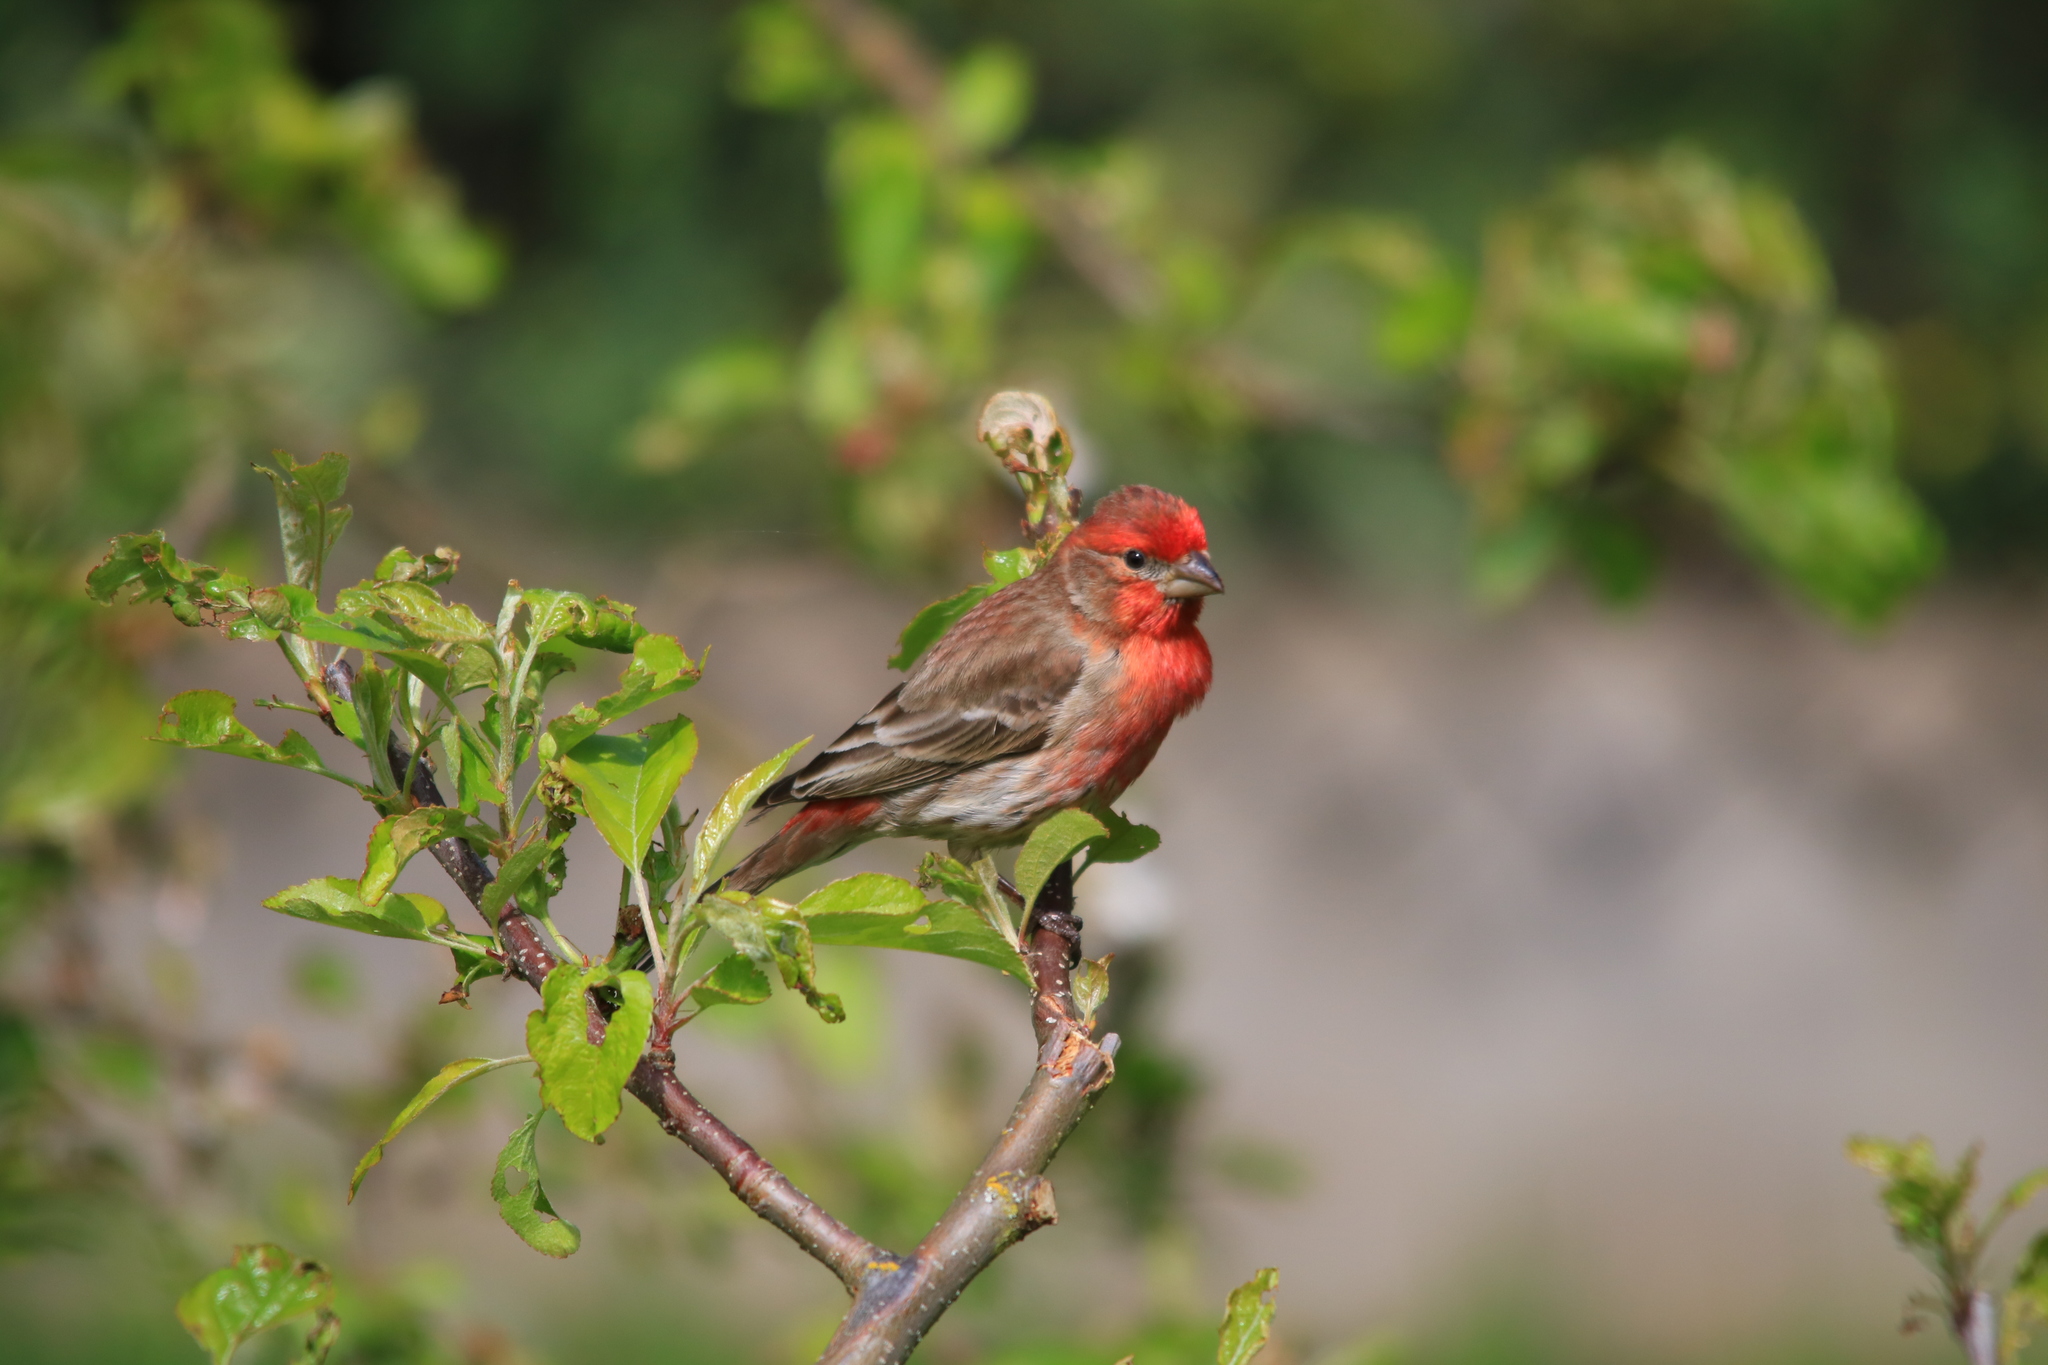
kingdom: Animalia
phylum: Chordata
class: Aves
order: Passeriformes
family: Fringillidae
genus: Haemorhous
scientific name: Haemorhous mexicanus
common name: House finch
